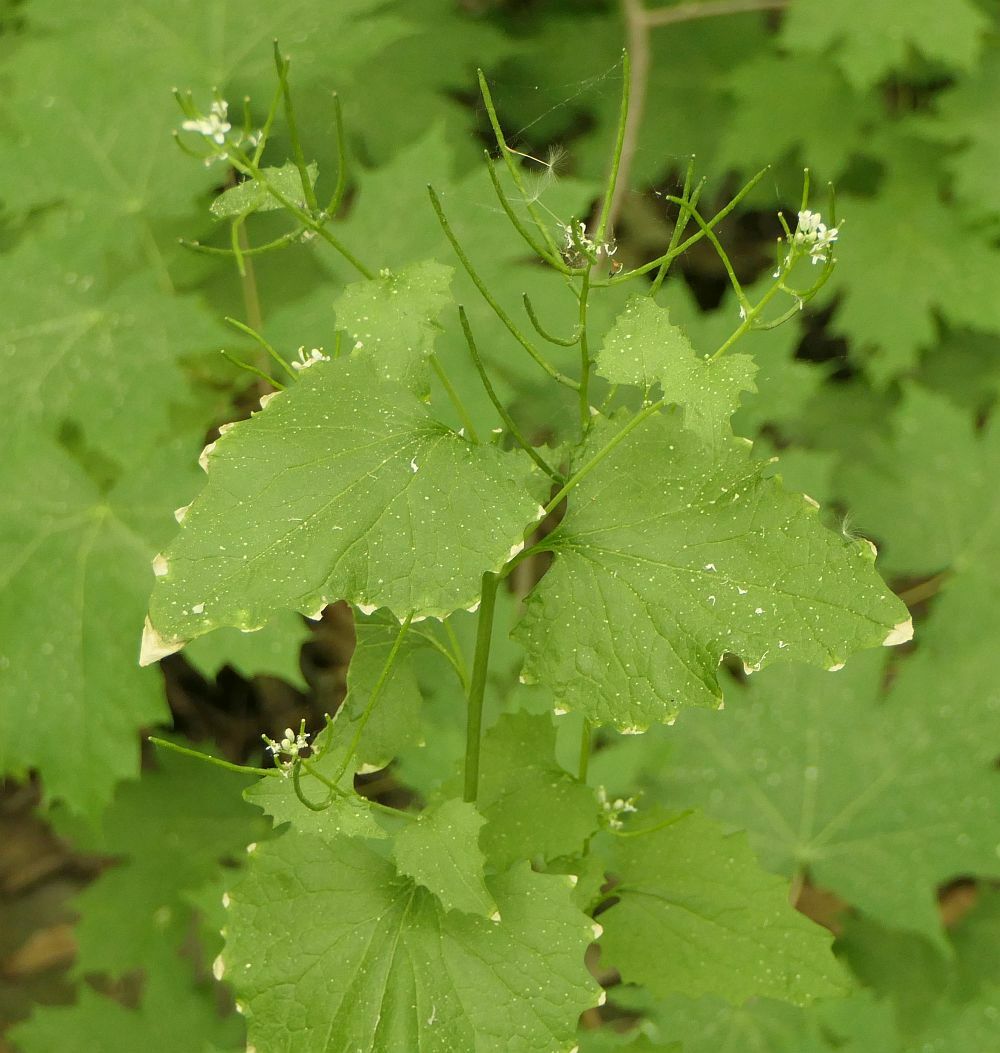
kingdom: Plantae
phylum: Tracheophyta
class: Magnoliopsida
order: Brassicales
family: Brassicaceae
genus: Alliaria
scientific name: Alliaria petiolata
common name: Garlic mustard
